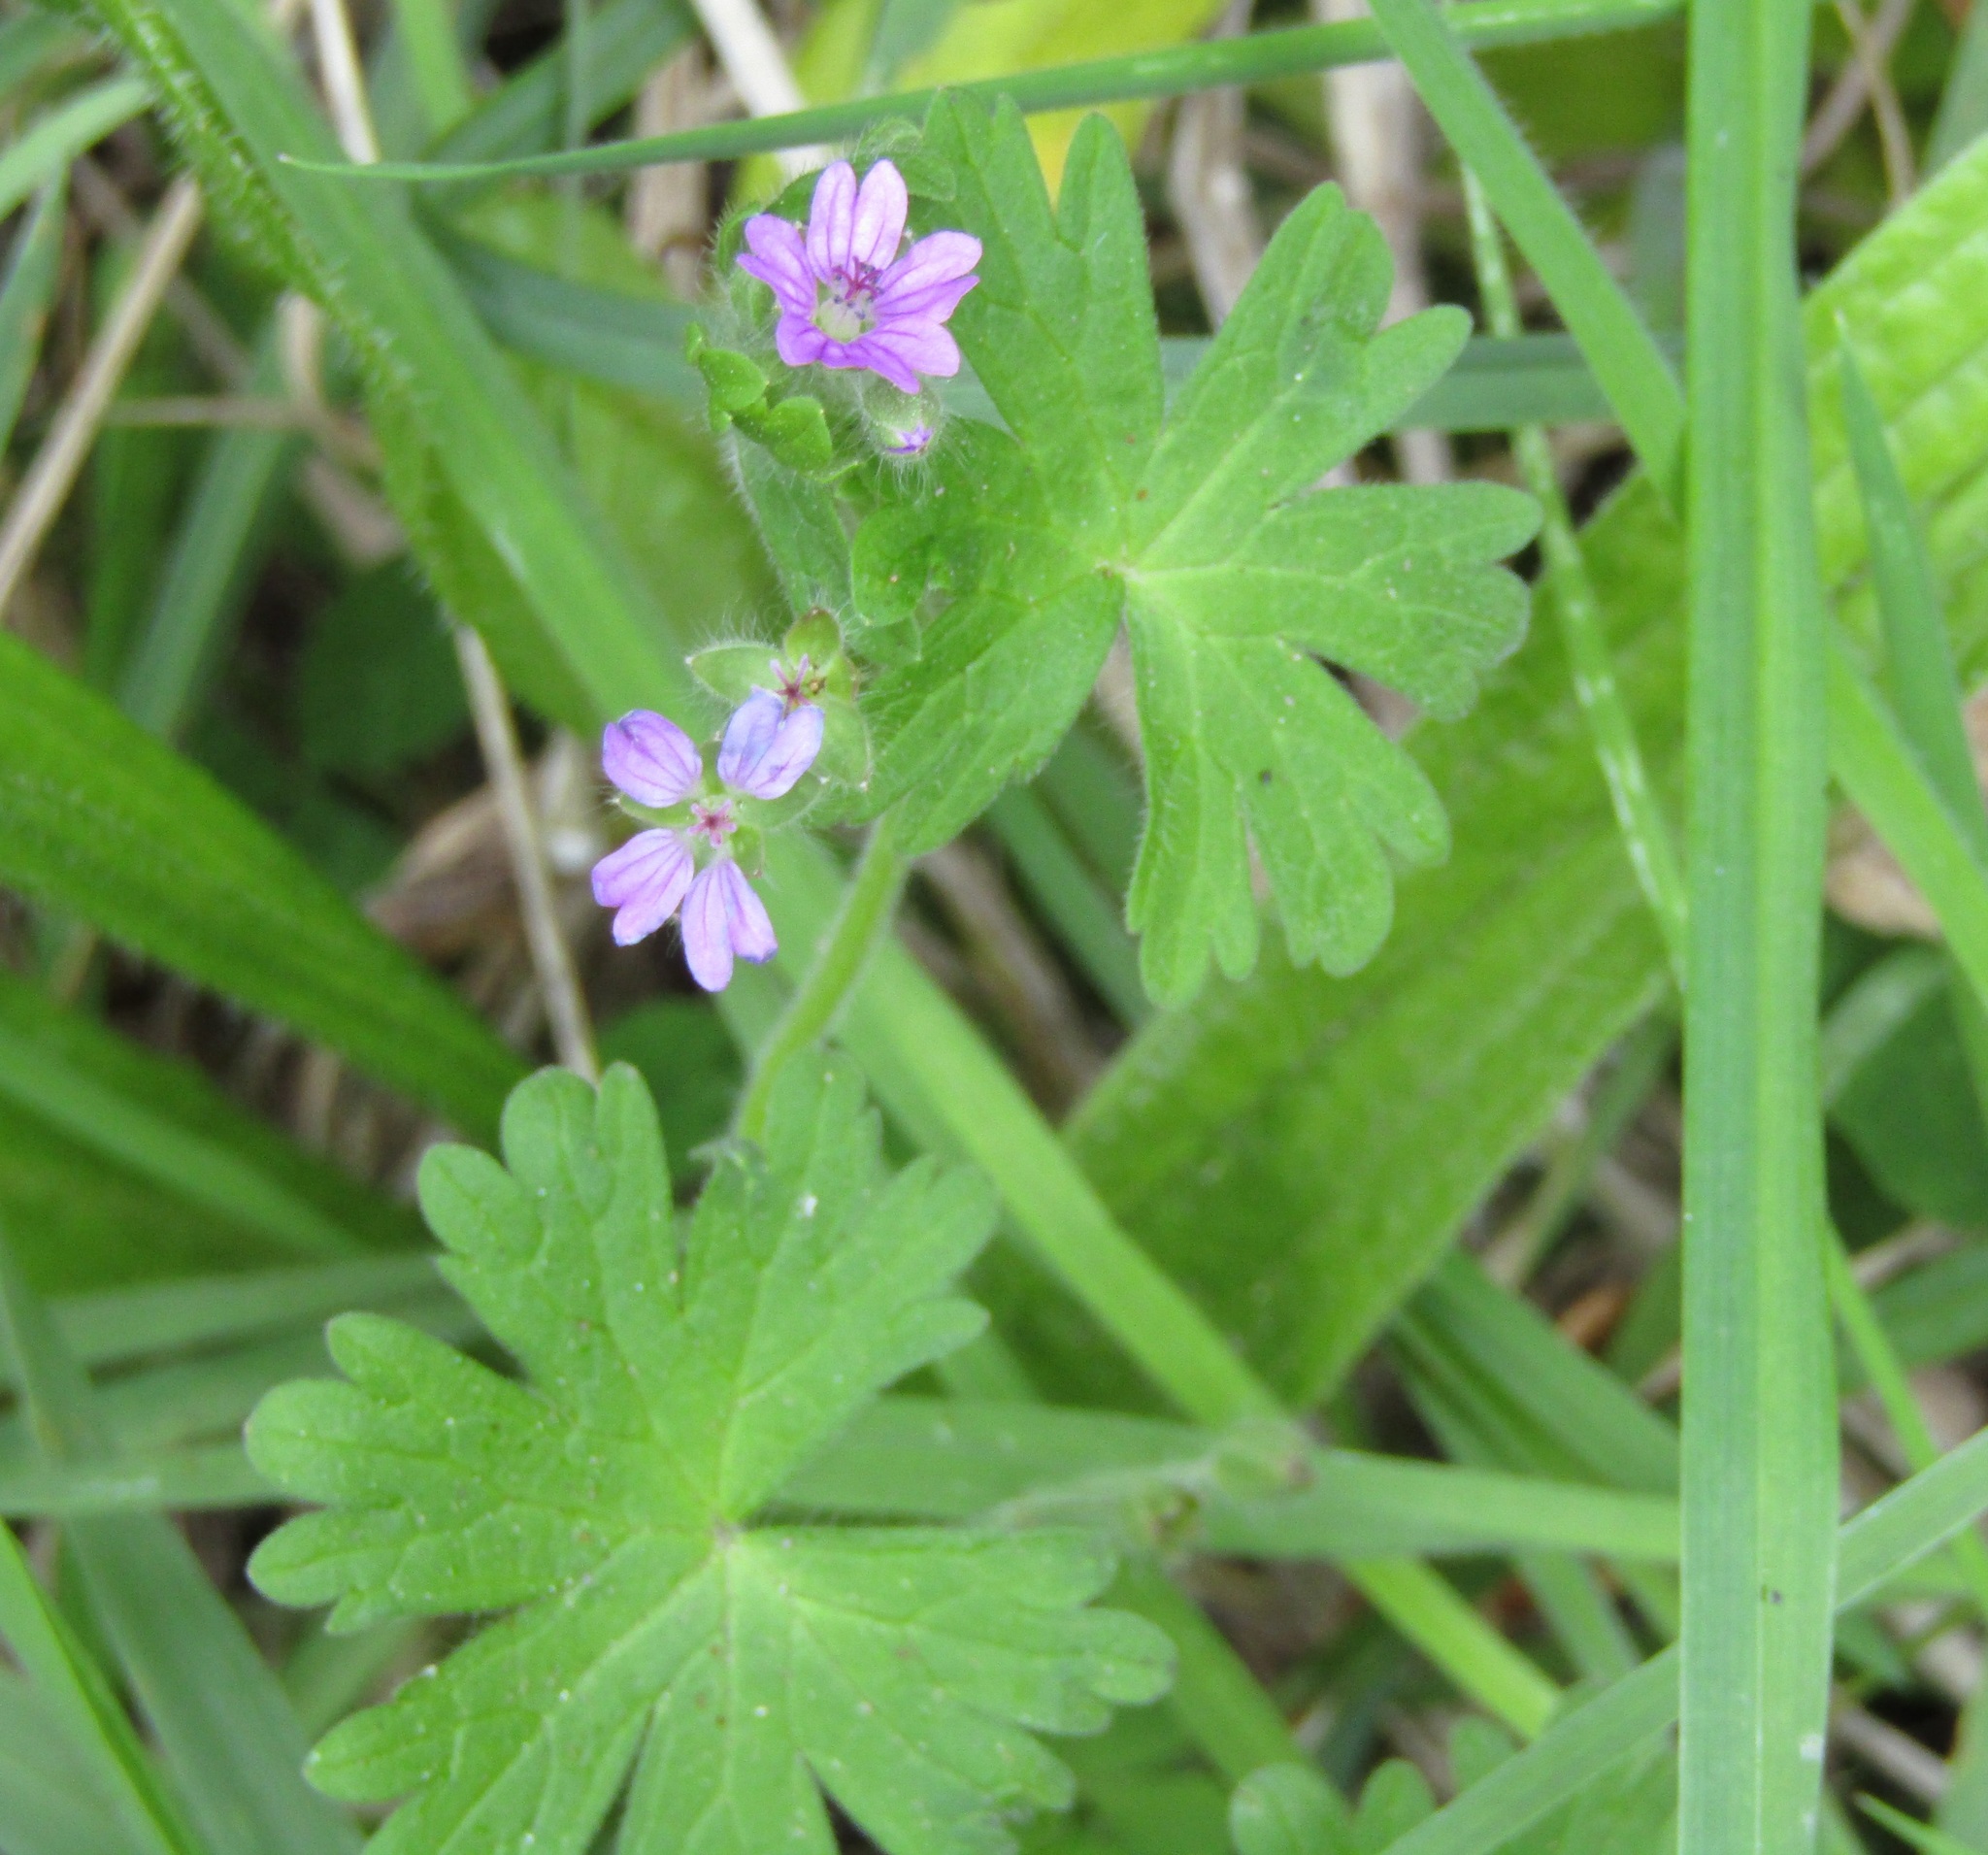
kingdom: Plantae
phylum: Tracheophyta
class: Magnoliopsida
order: Geraniales
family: Geraniaceae
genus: Geranium
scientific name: Geranium molle
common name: Dove's-foot crane's-bill
